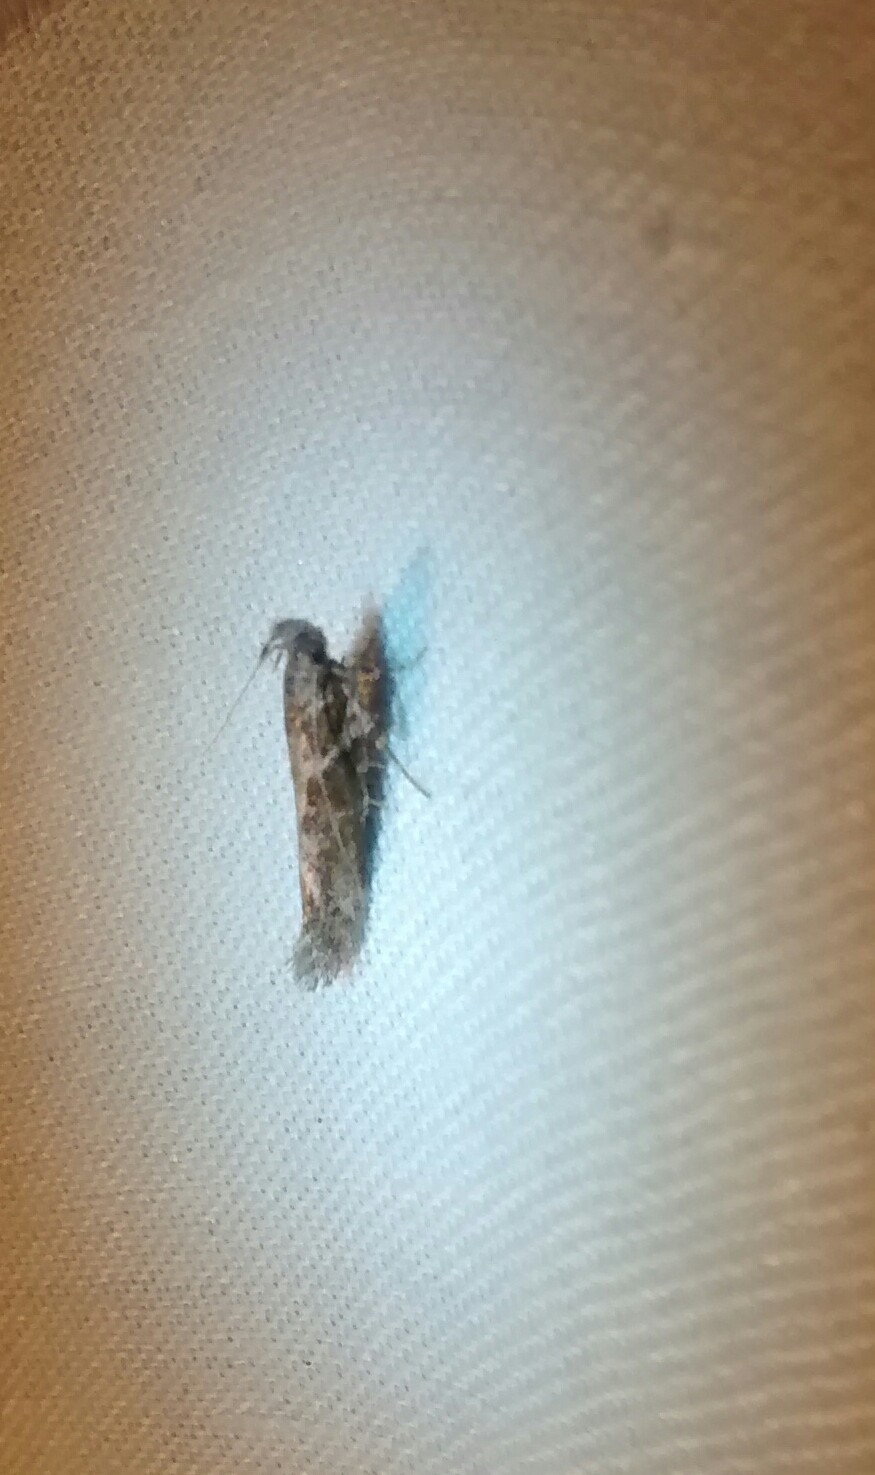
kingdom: Animalia
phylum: Arthropoda
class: Insecta
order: Lepidoptera
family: Gelechiidae
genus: Gnorimoschema
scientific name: Gnorimoschema gallaesolidaginis
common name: Goldenrod elliptical-gall moth
